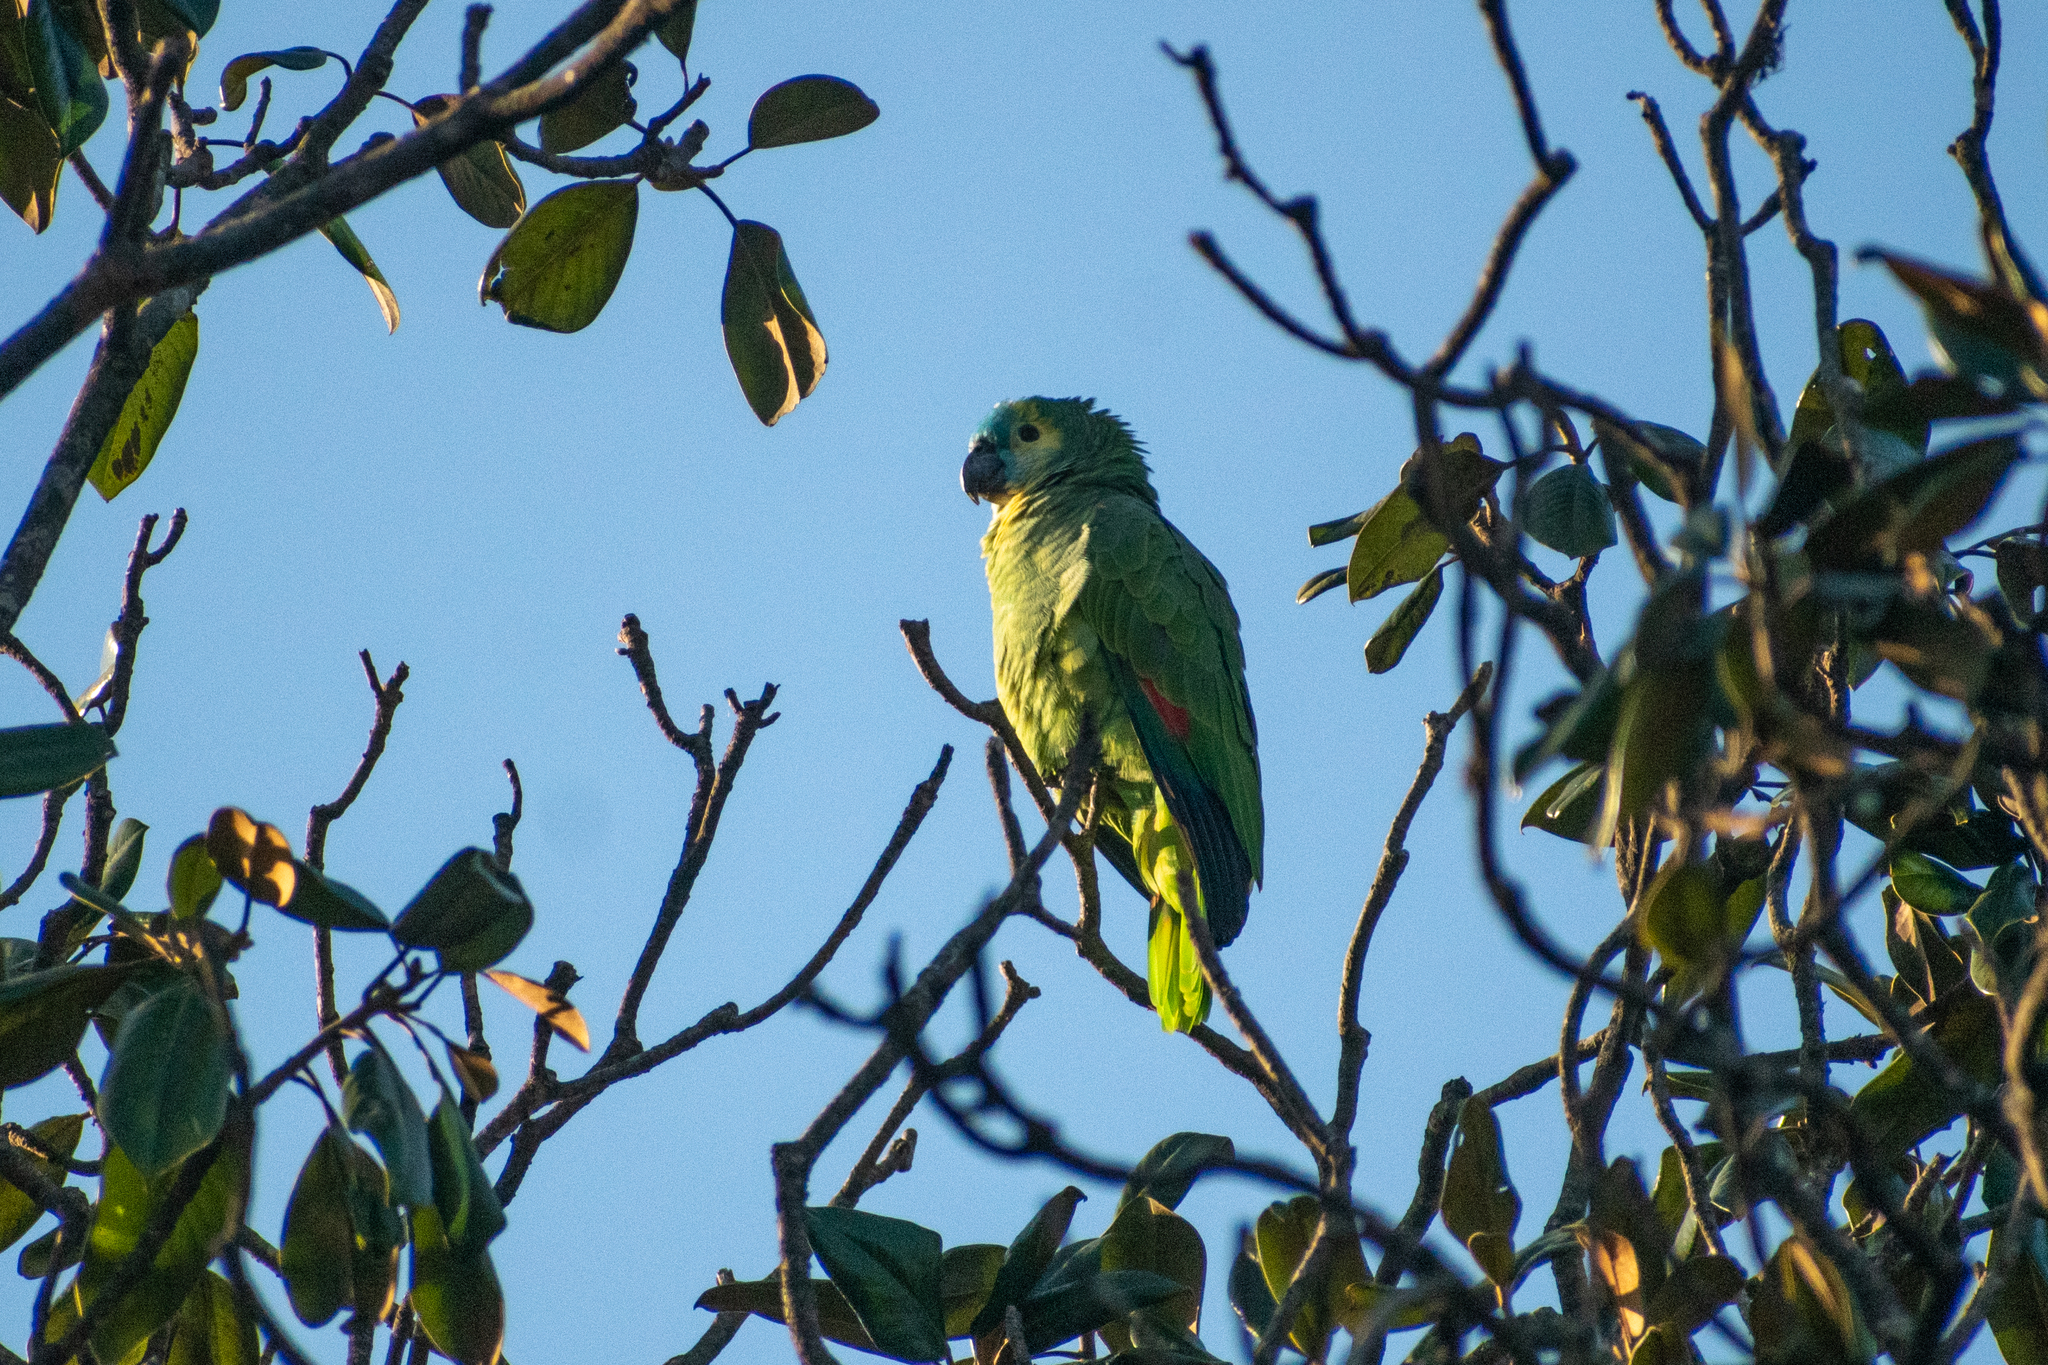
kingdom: Animalia
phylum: Chordata
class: Aves
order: Psittaciformes
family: Psittacidae
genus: Amazona
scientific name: Amazona aestiva
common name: Turquoise-fronted amazon
